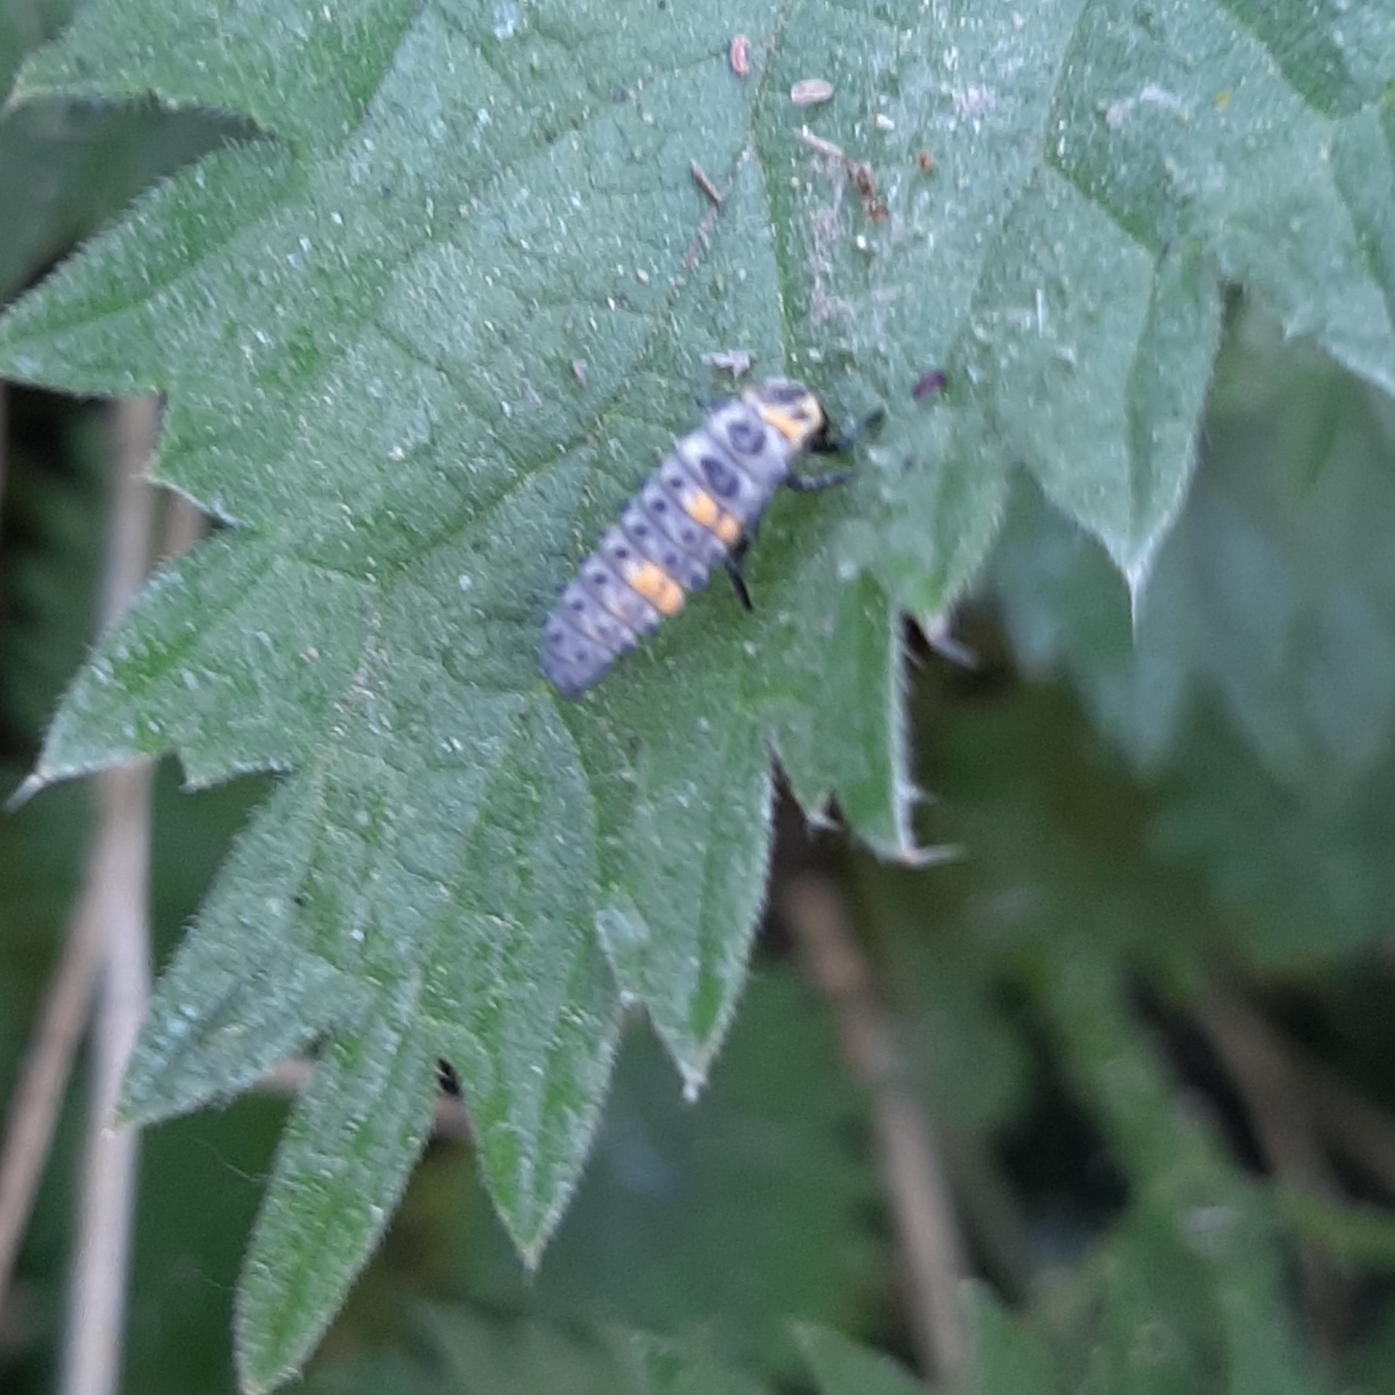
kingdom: Animalia
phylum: Arthropoda
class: Insecta
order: Coleoptera
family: Coccinellidae
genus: Coccinella
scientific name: Coccinella septempunctata
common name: Sevenspotted lady beetle
